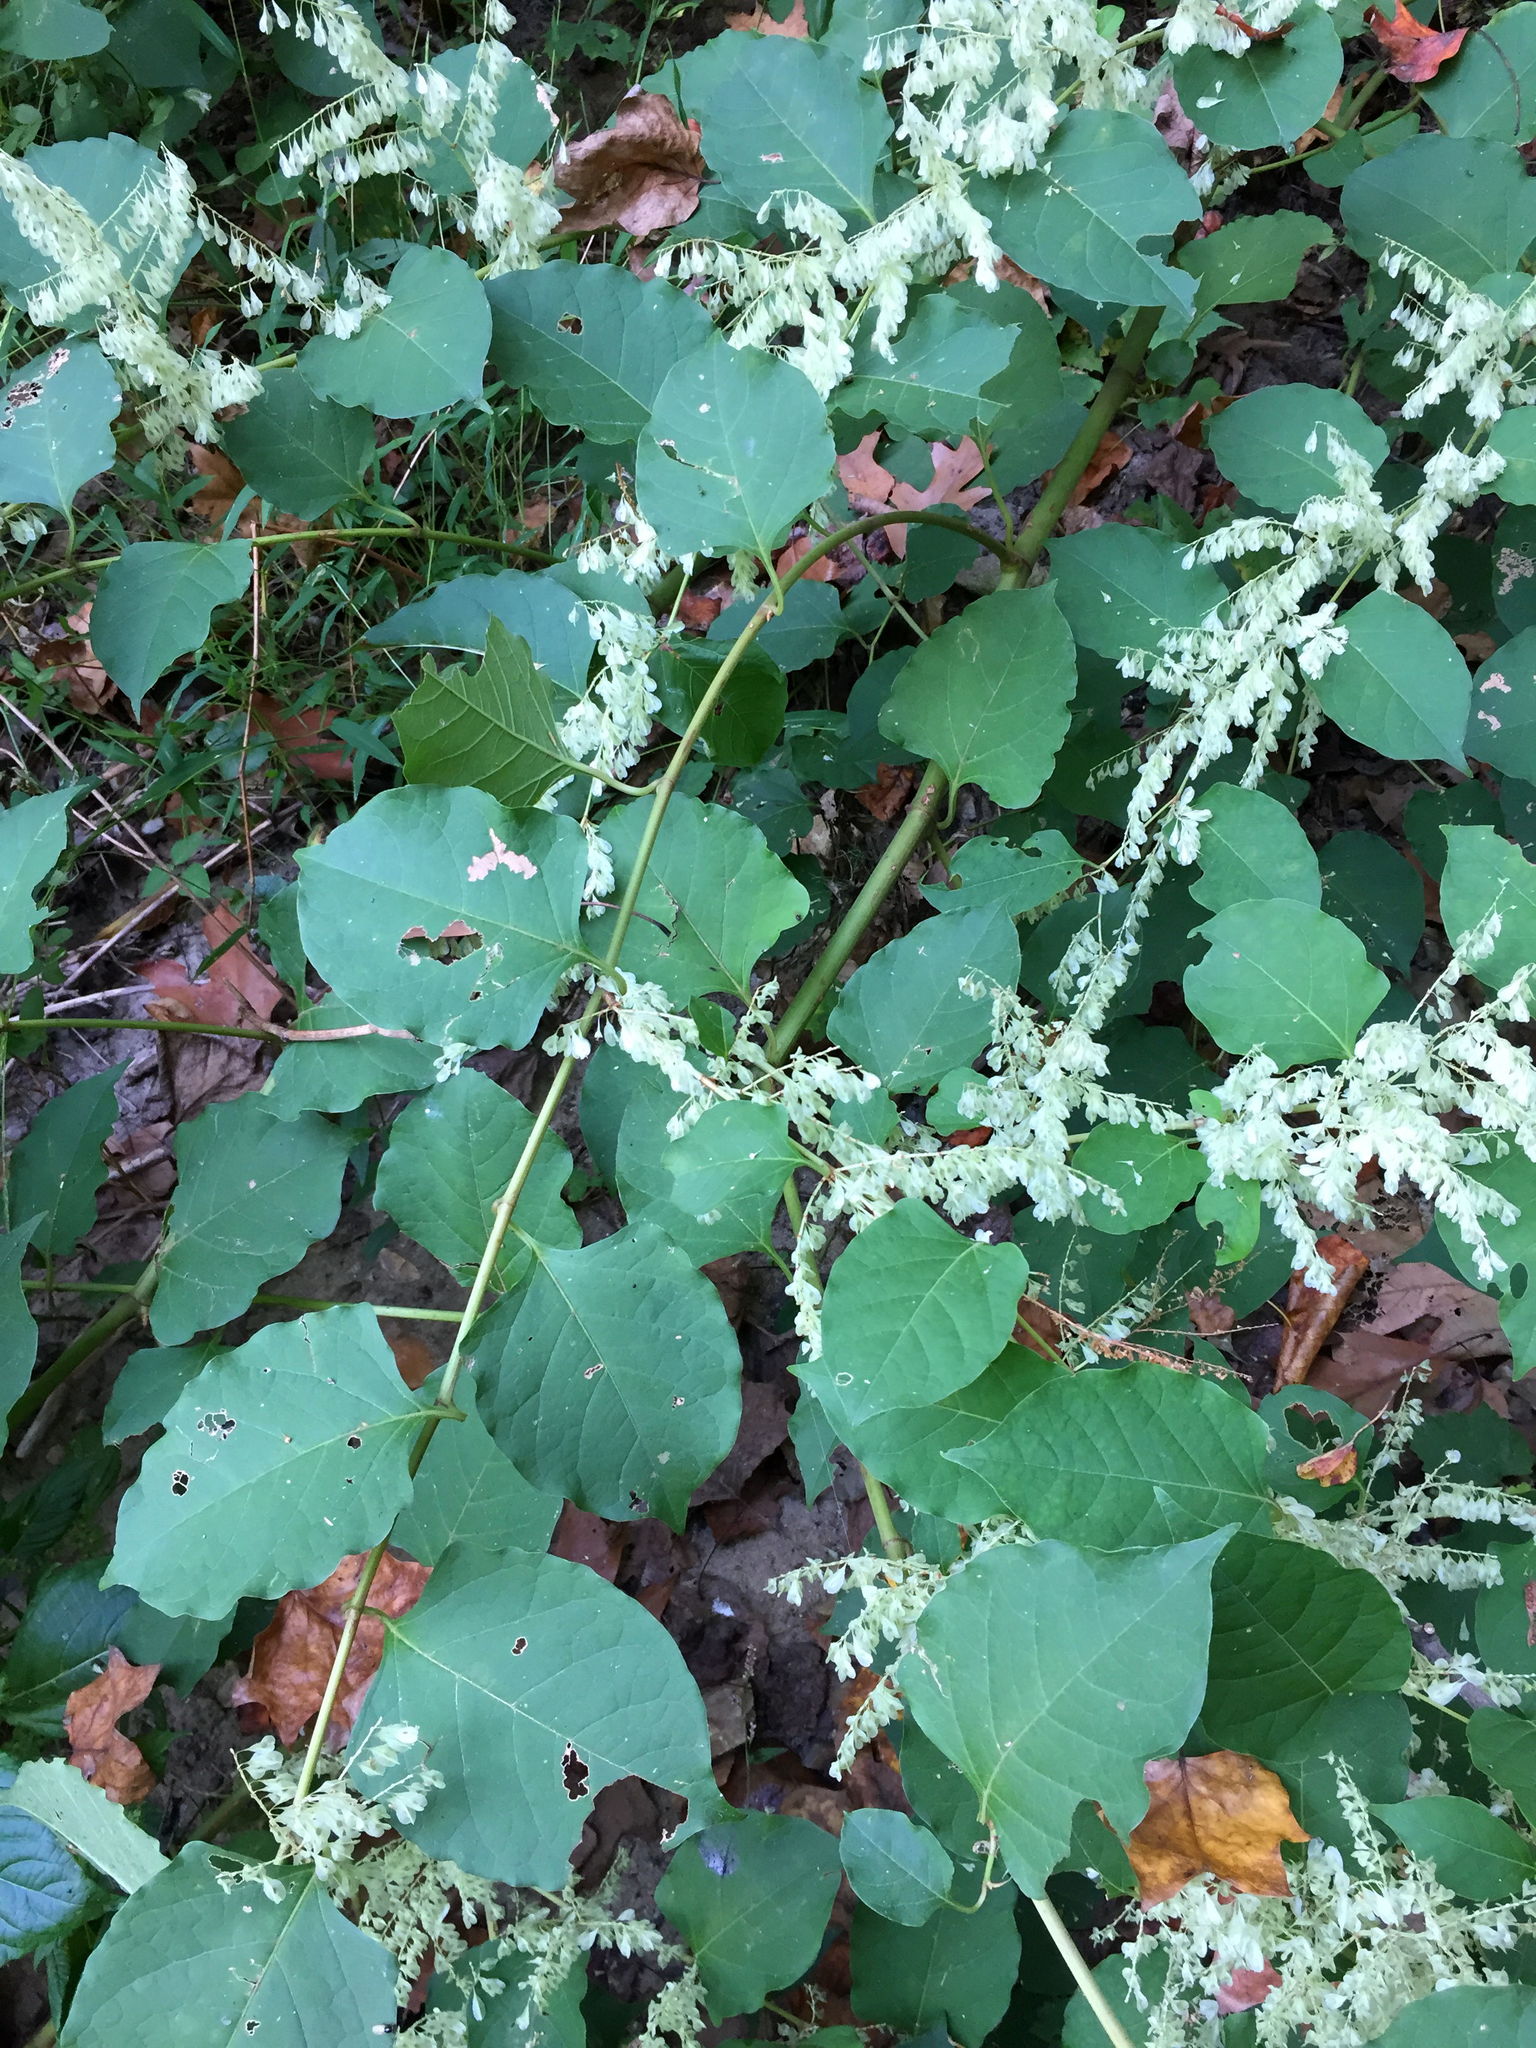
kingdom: Plantae
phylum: Tracheophyta
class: Magnoliopsida
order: Caryophyllales
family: Polygonaceae
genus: Reynoutria
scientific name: Reynoutria japonica
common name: Japanese knotweed
